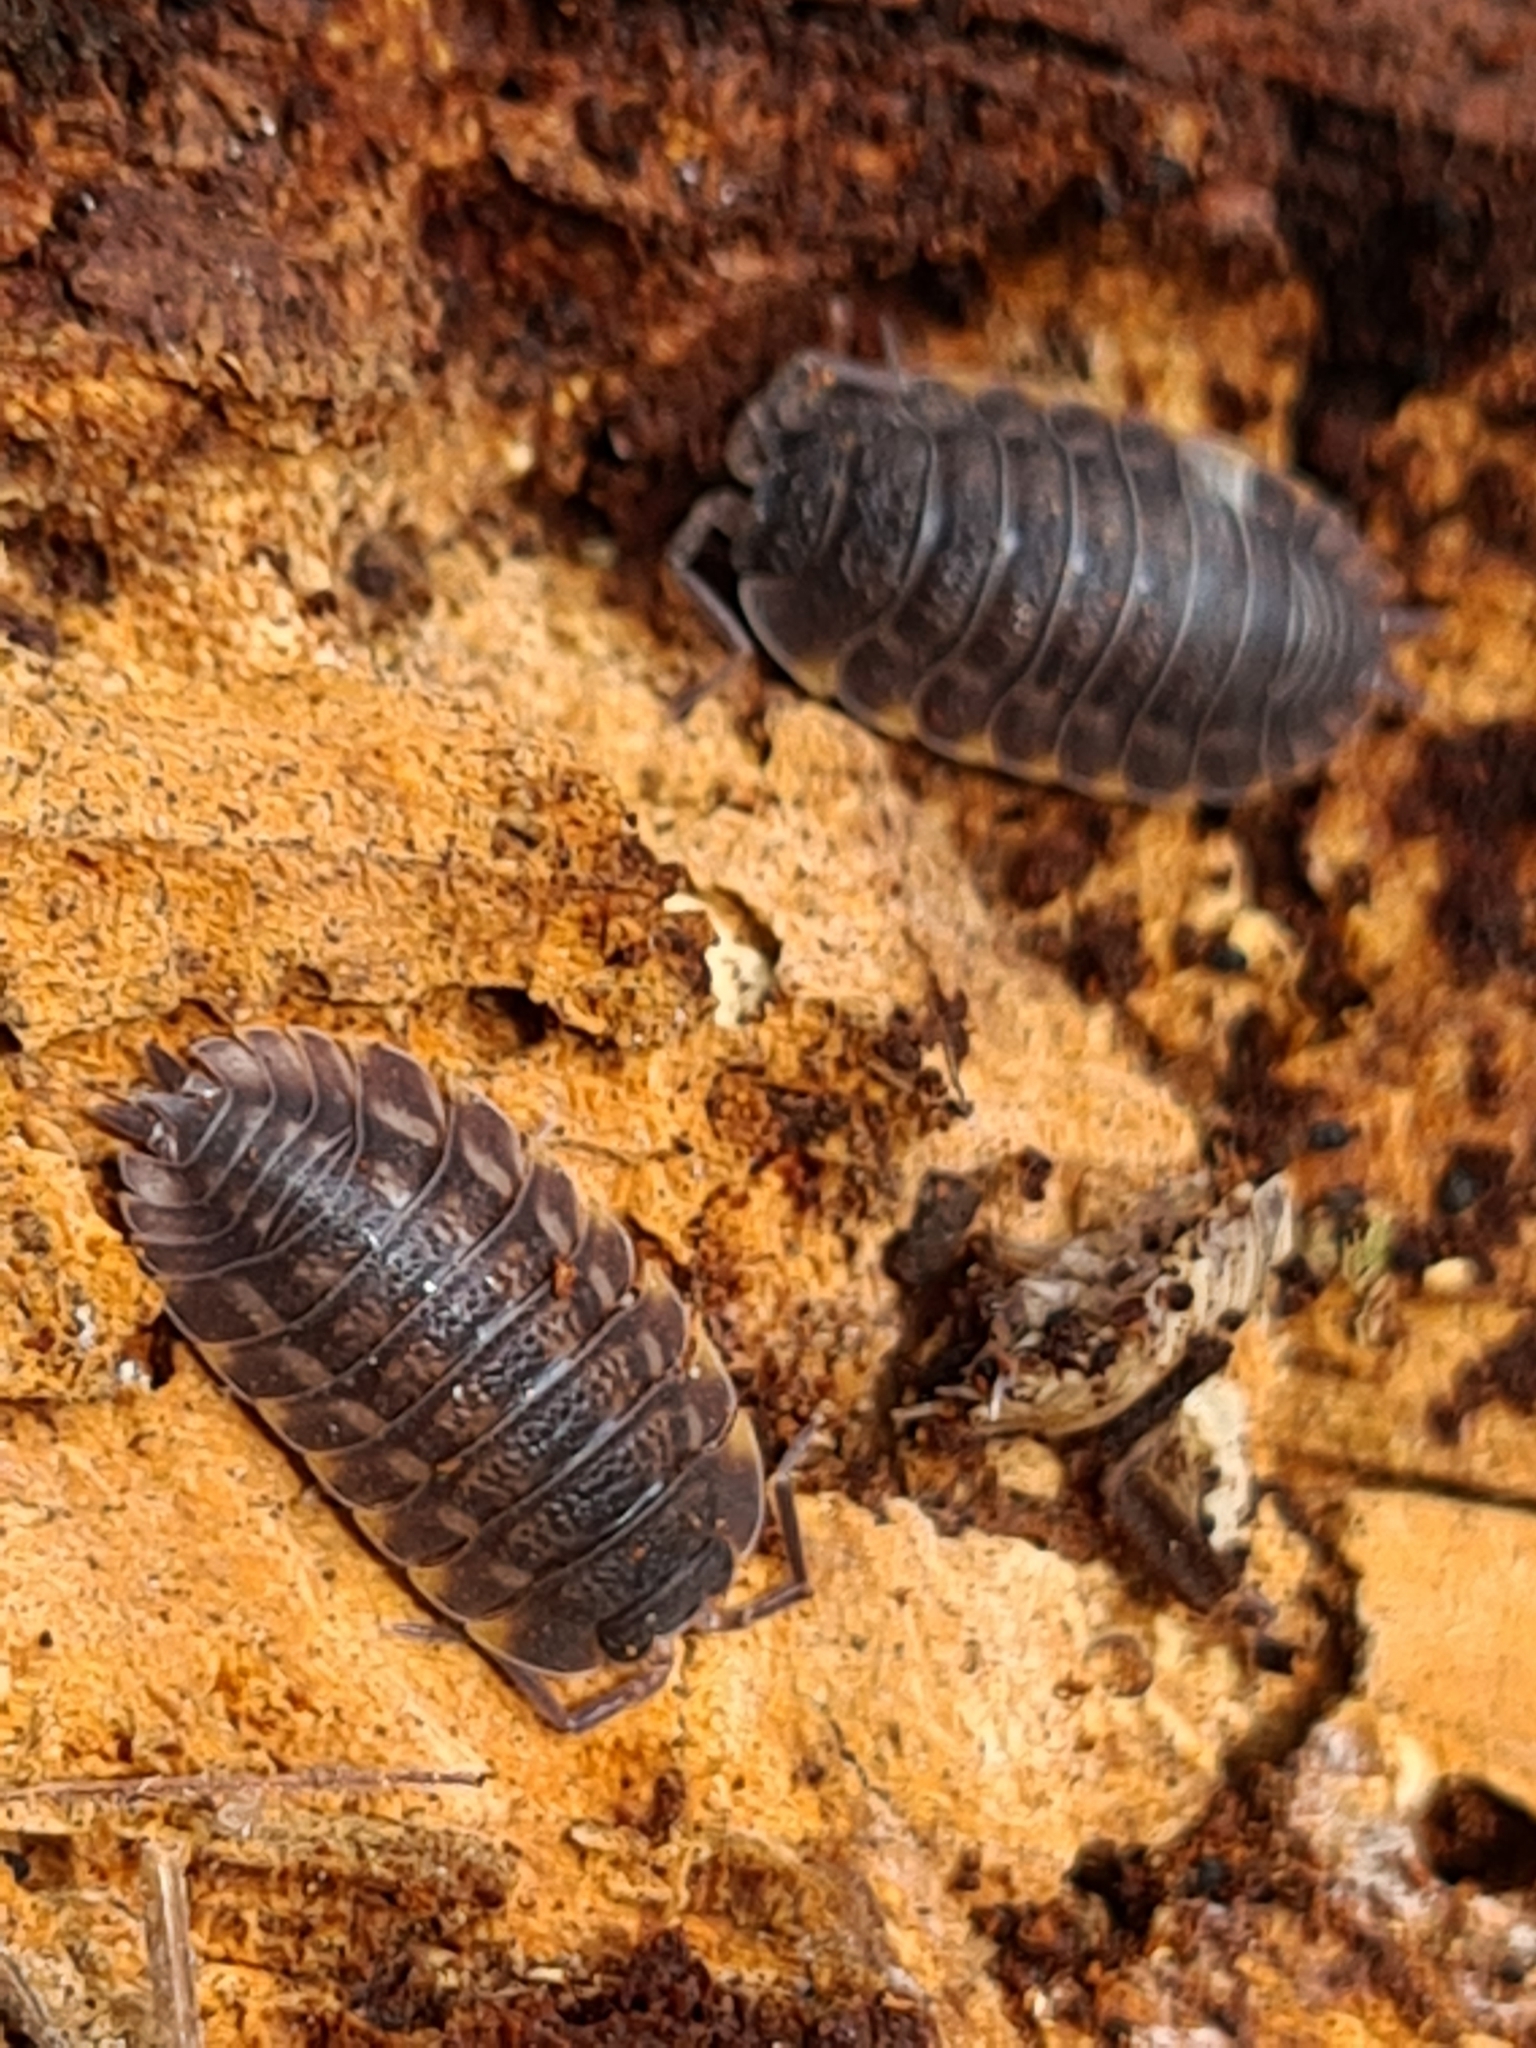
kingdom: Animalia
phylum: Arthropoda
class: Malacostraca
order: Isopoda
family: Trachelipodidae
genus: Trachelipus
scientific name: Trachelipus ratzeburgii
